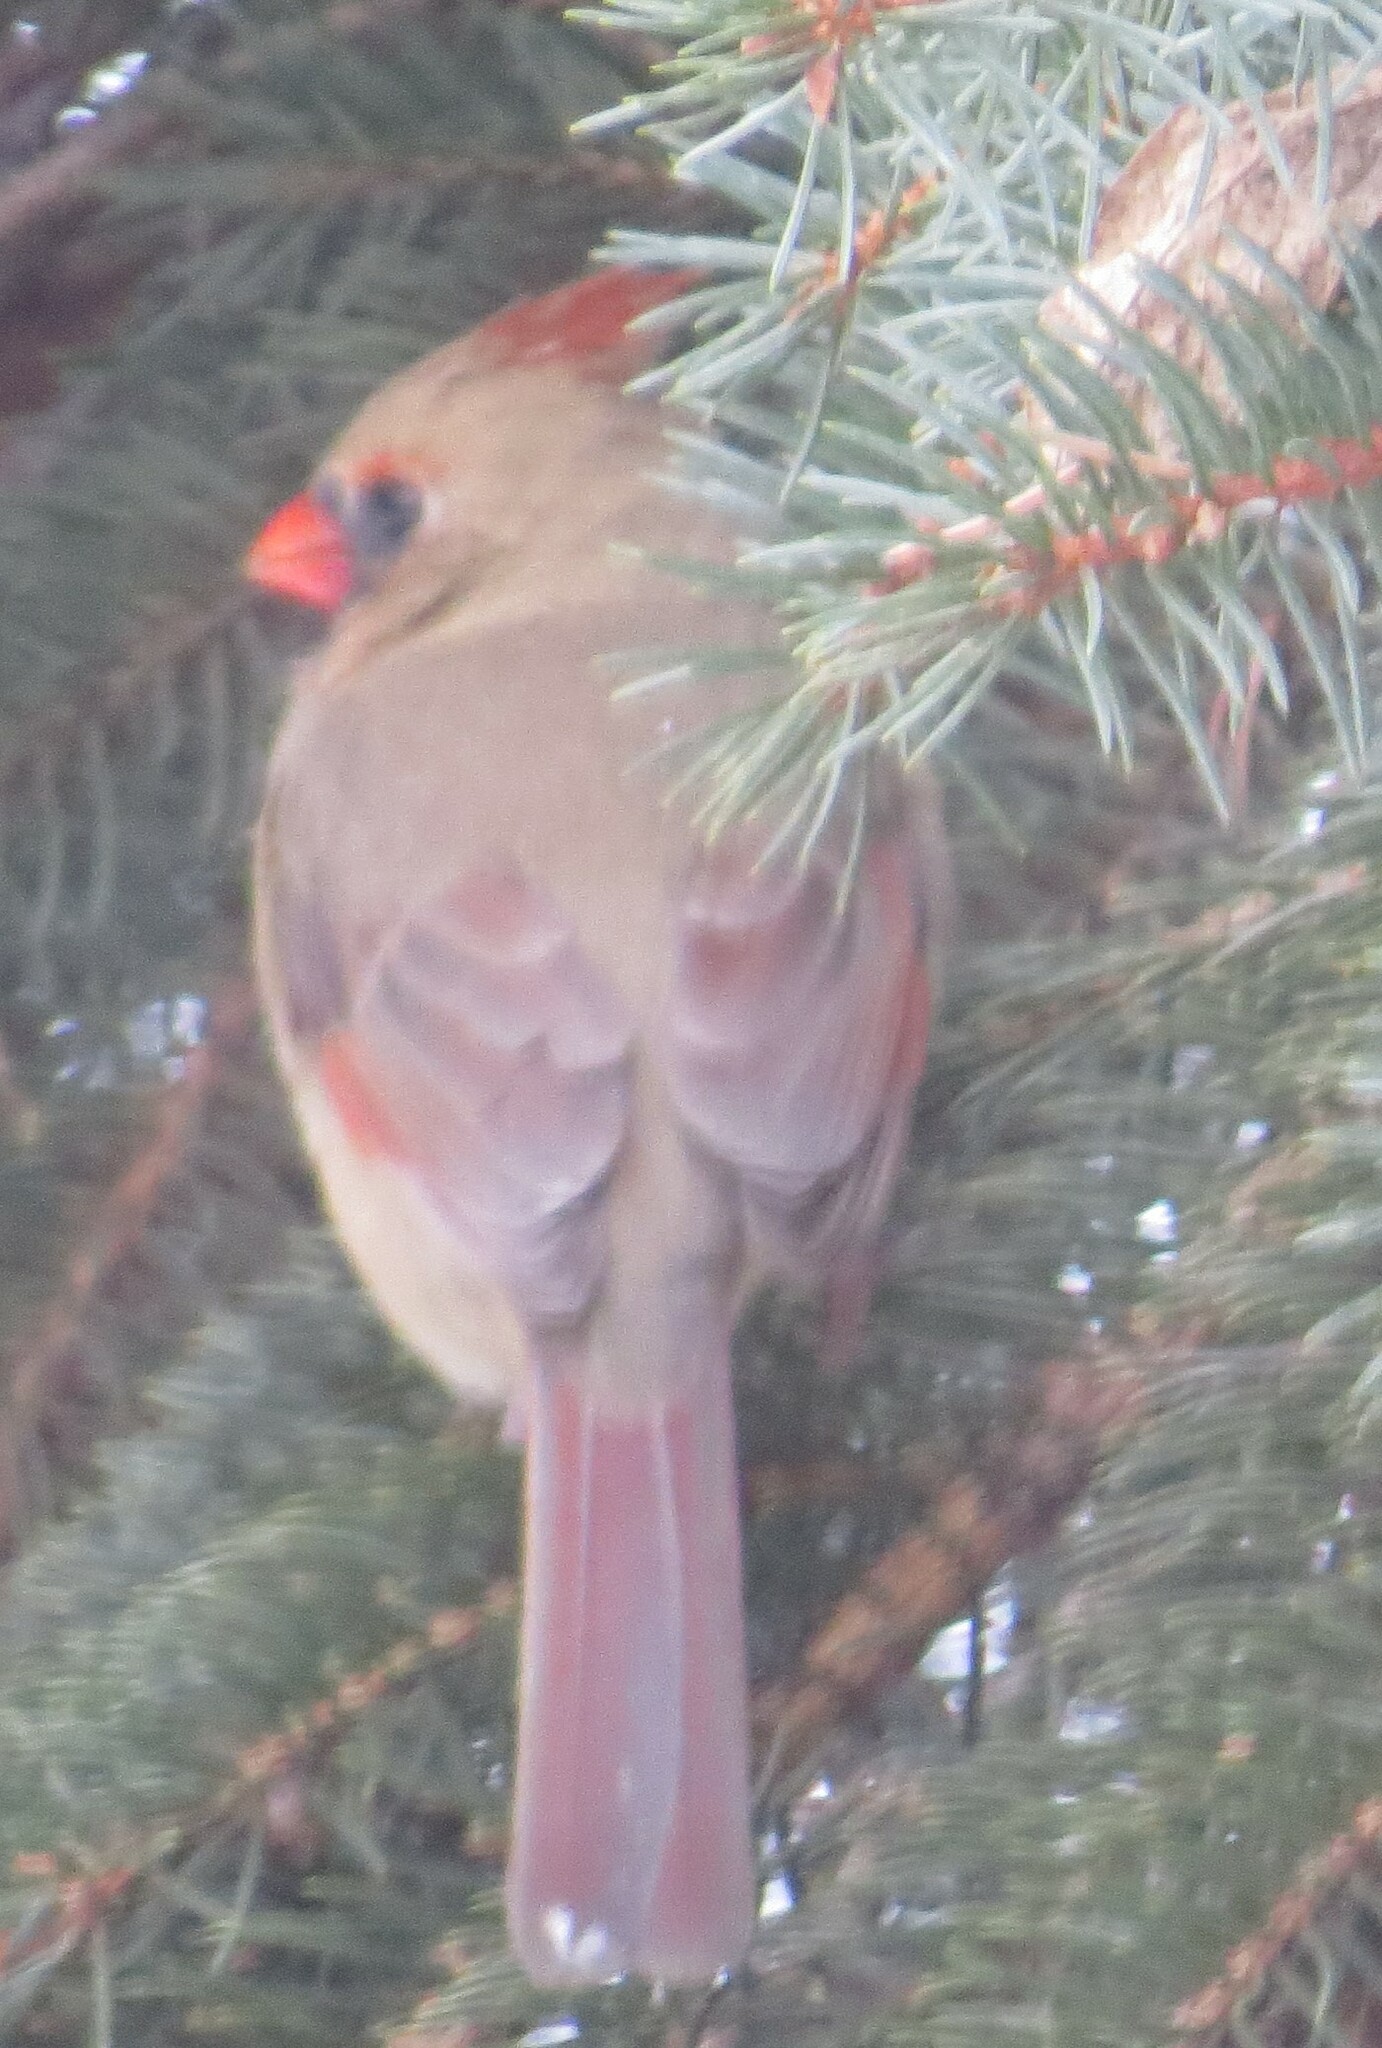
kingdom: Animalia
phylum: Chordata
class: Aves
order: Passeriformes
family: Cardinalidae
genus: Cardinalis
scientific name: Cardinalis cardinalis
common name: Northern cardinal
